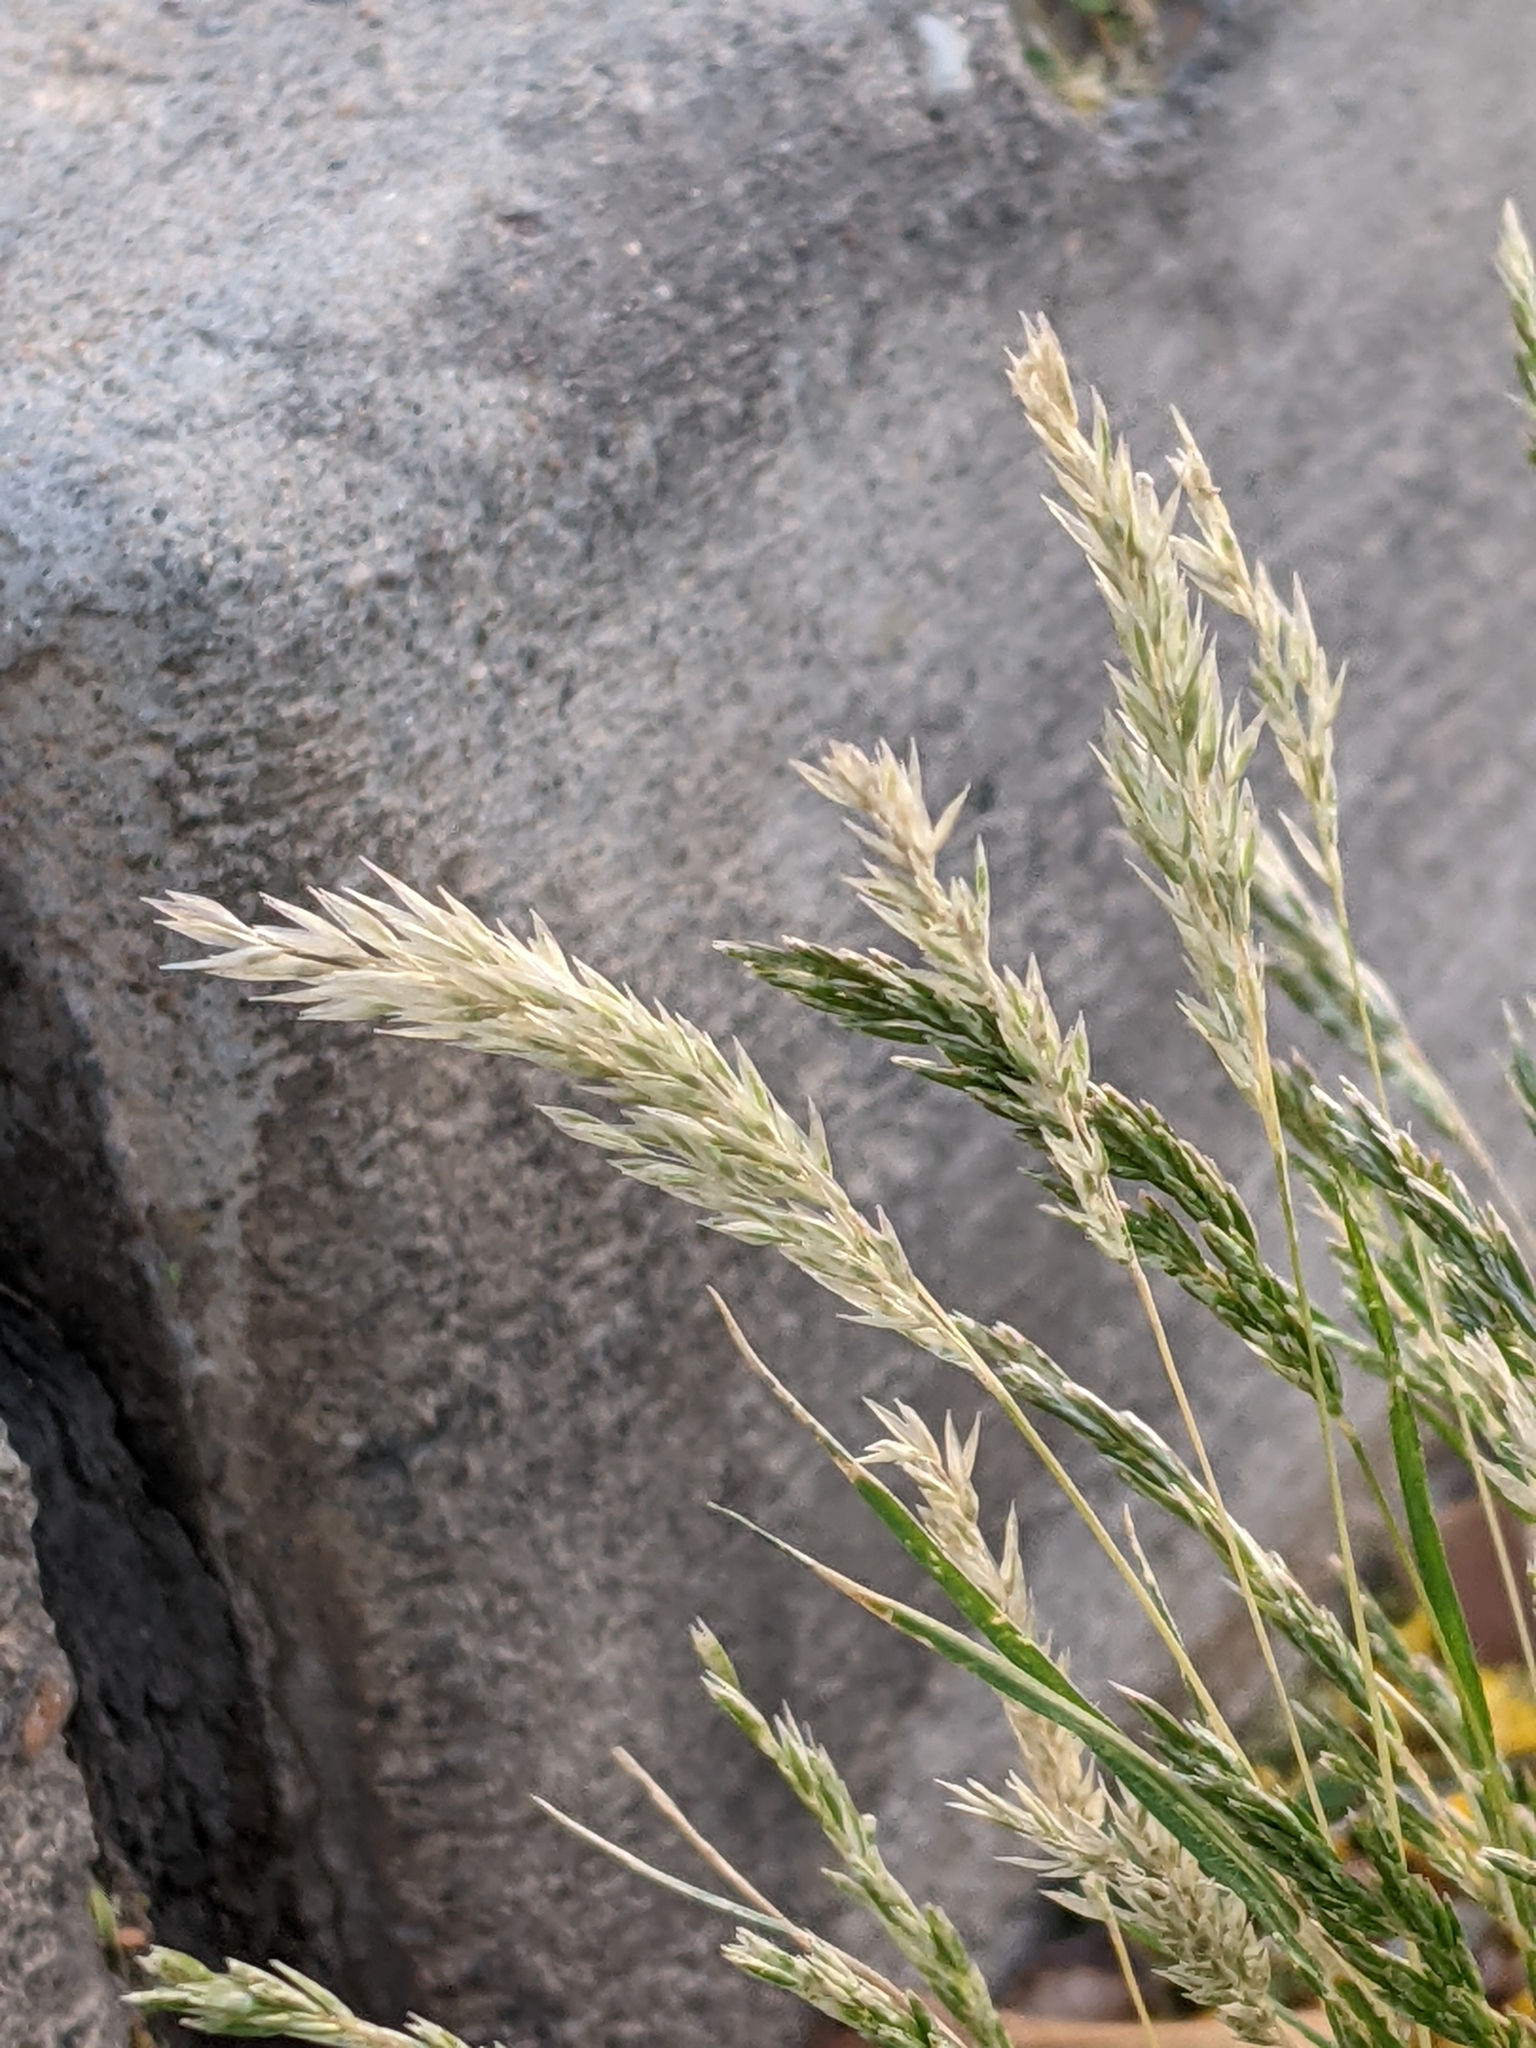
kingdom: Plantae
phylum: Tracheophyta
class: Liliopsida
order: Poales
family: Poaceae
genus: Schismus
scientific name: Schismus barbatus
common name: Kelch-grass
